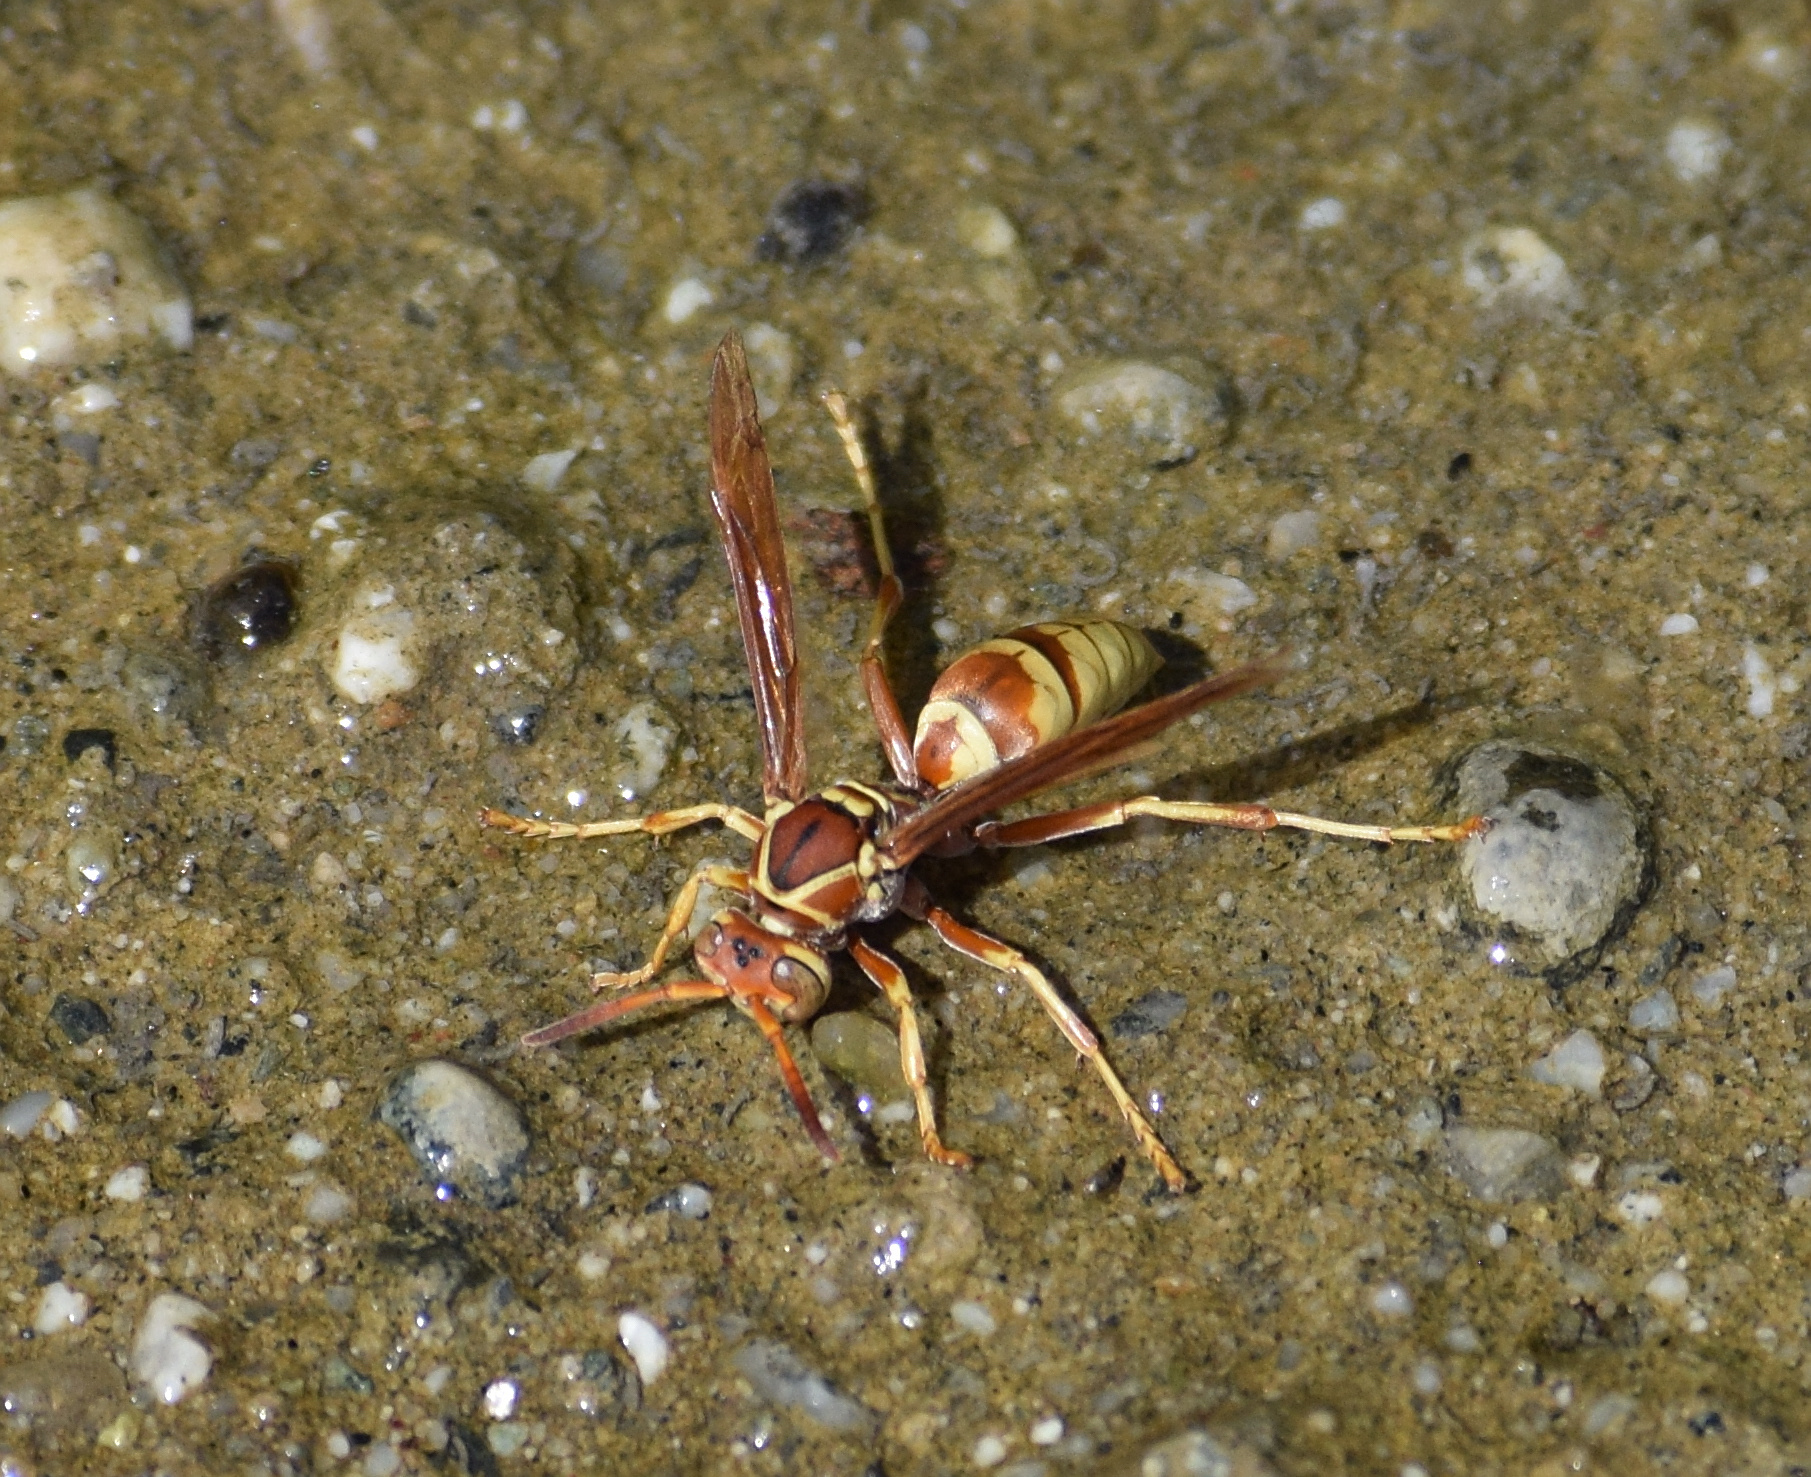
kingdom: Animalia
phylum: Arthropoda
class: Insecta
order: Hymenoptera
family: Eumenidae
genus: Polistes
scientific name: Polistes dorsalis
